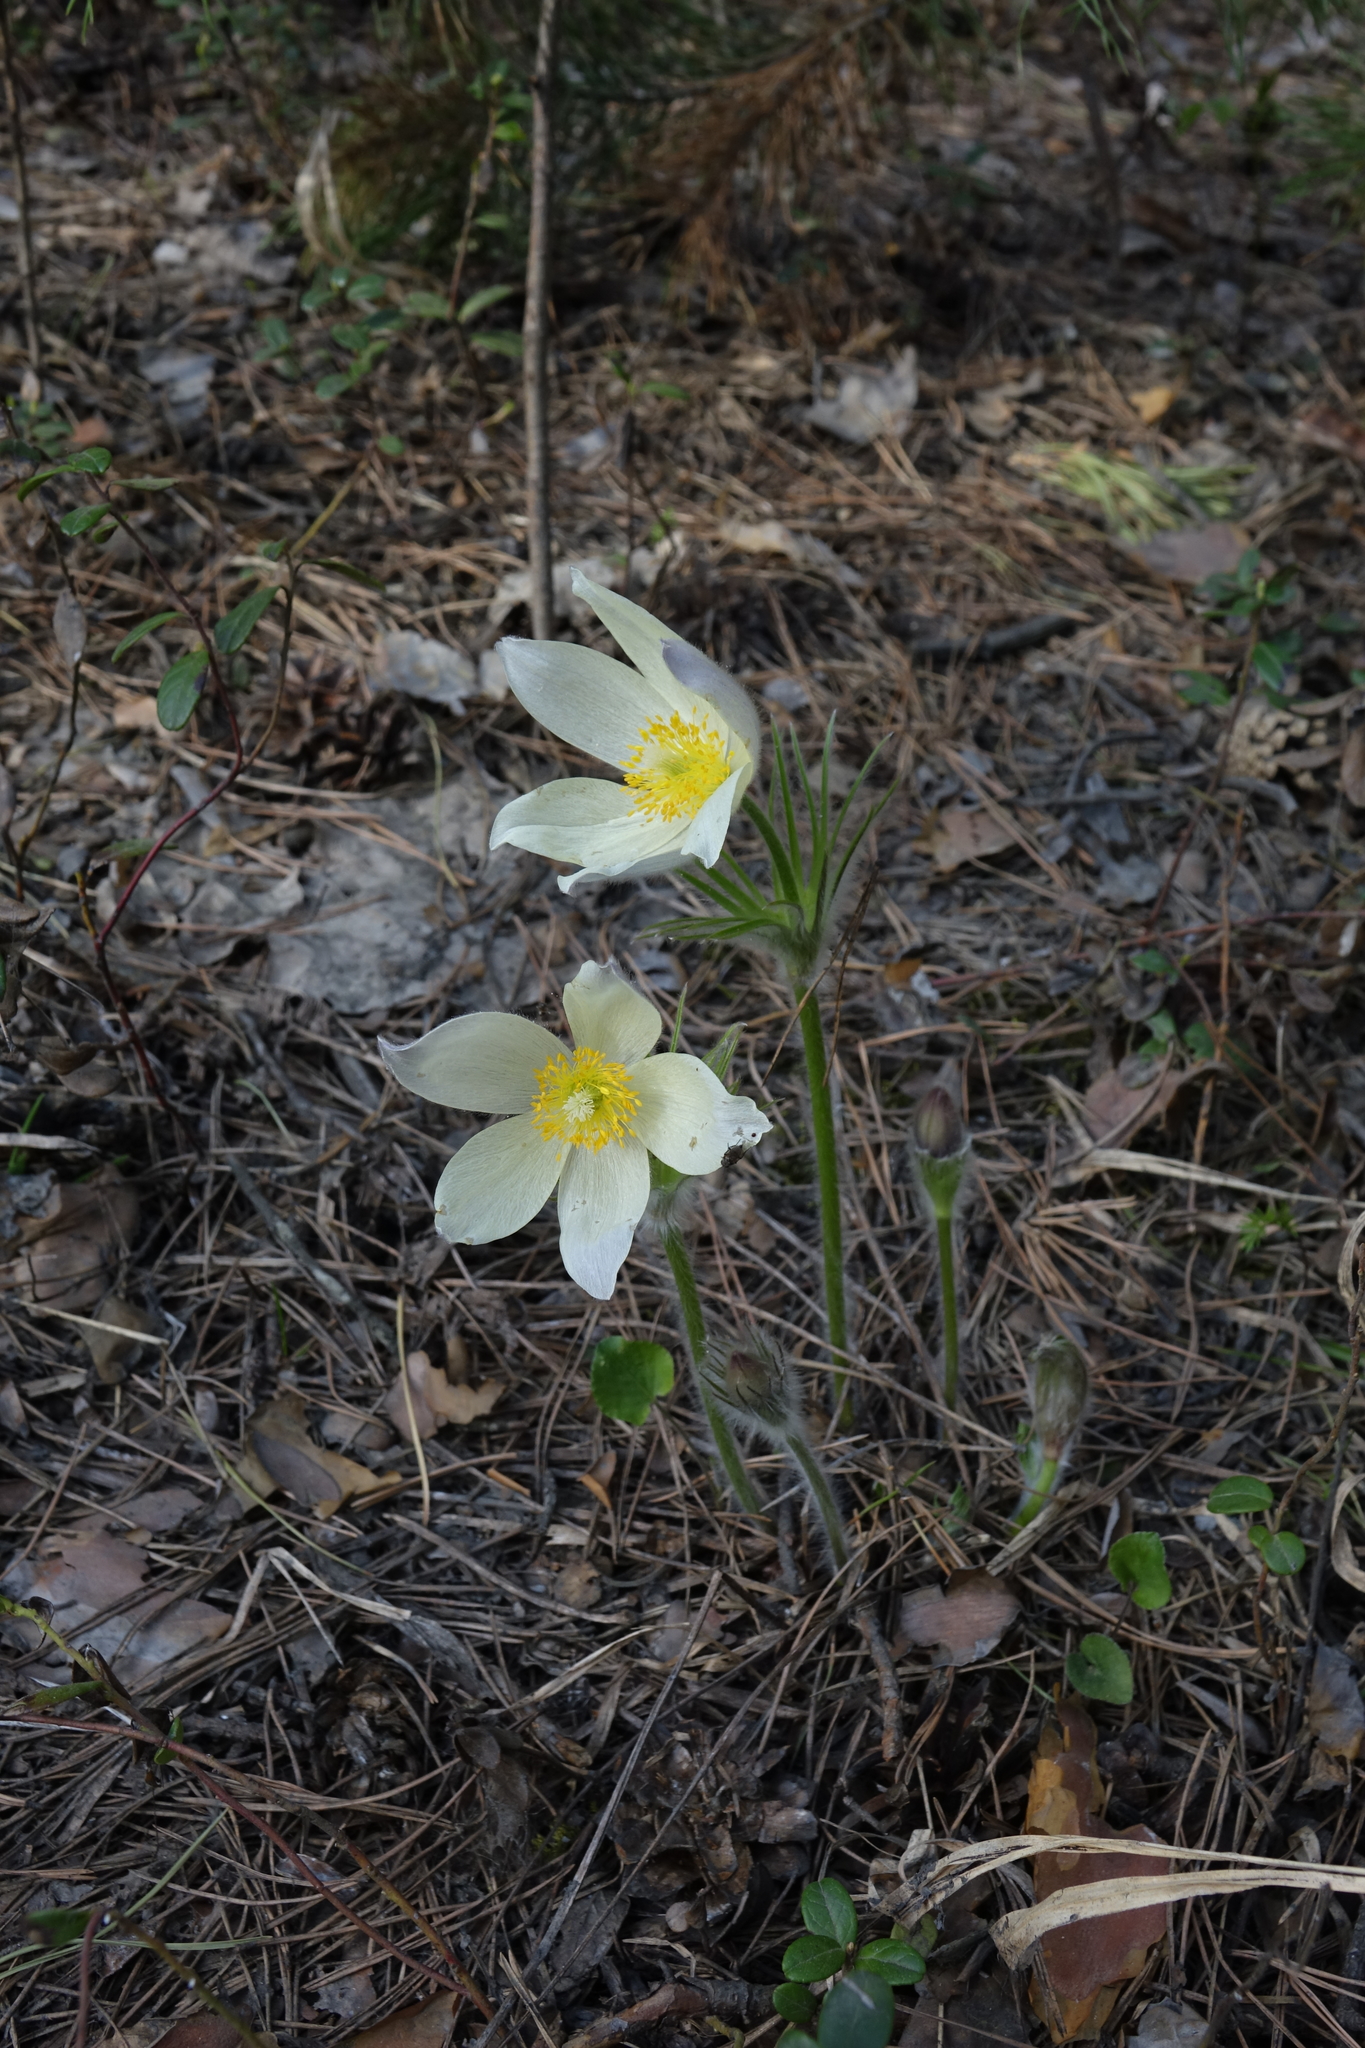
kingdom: Plantae
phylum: Tracheophyta
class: Magnoliopsida
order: Ranunculales
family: Ranunculaceae
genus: Pulsatilla
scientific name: Pulsatilla patens
